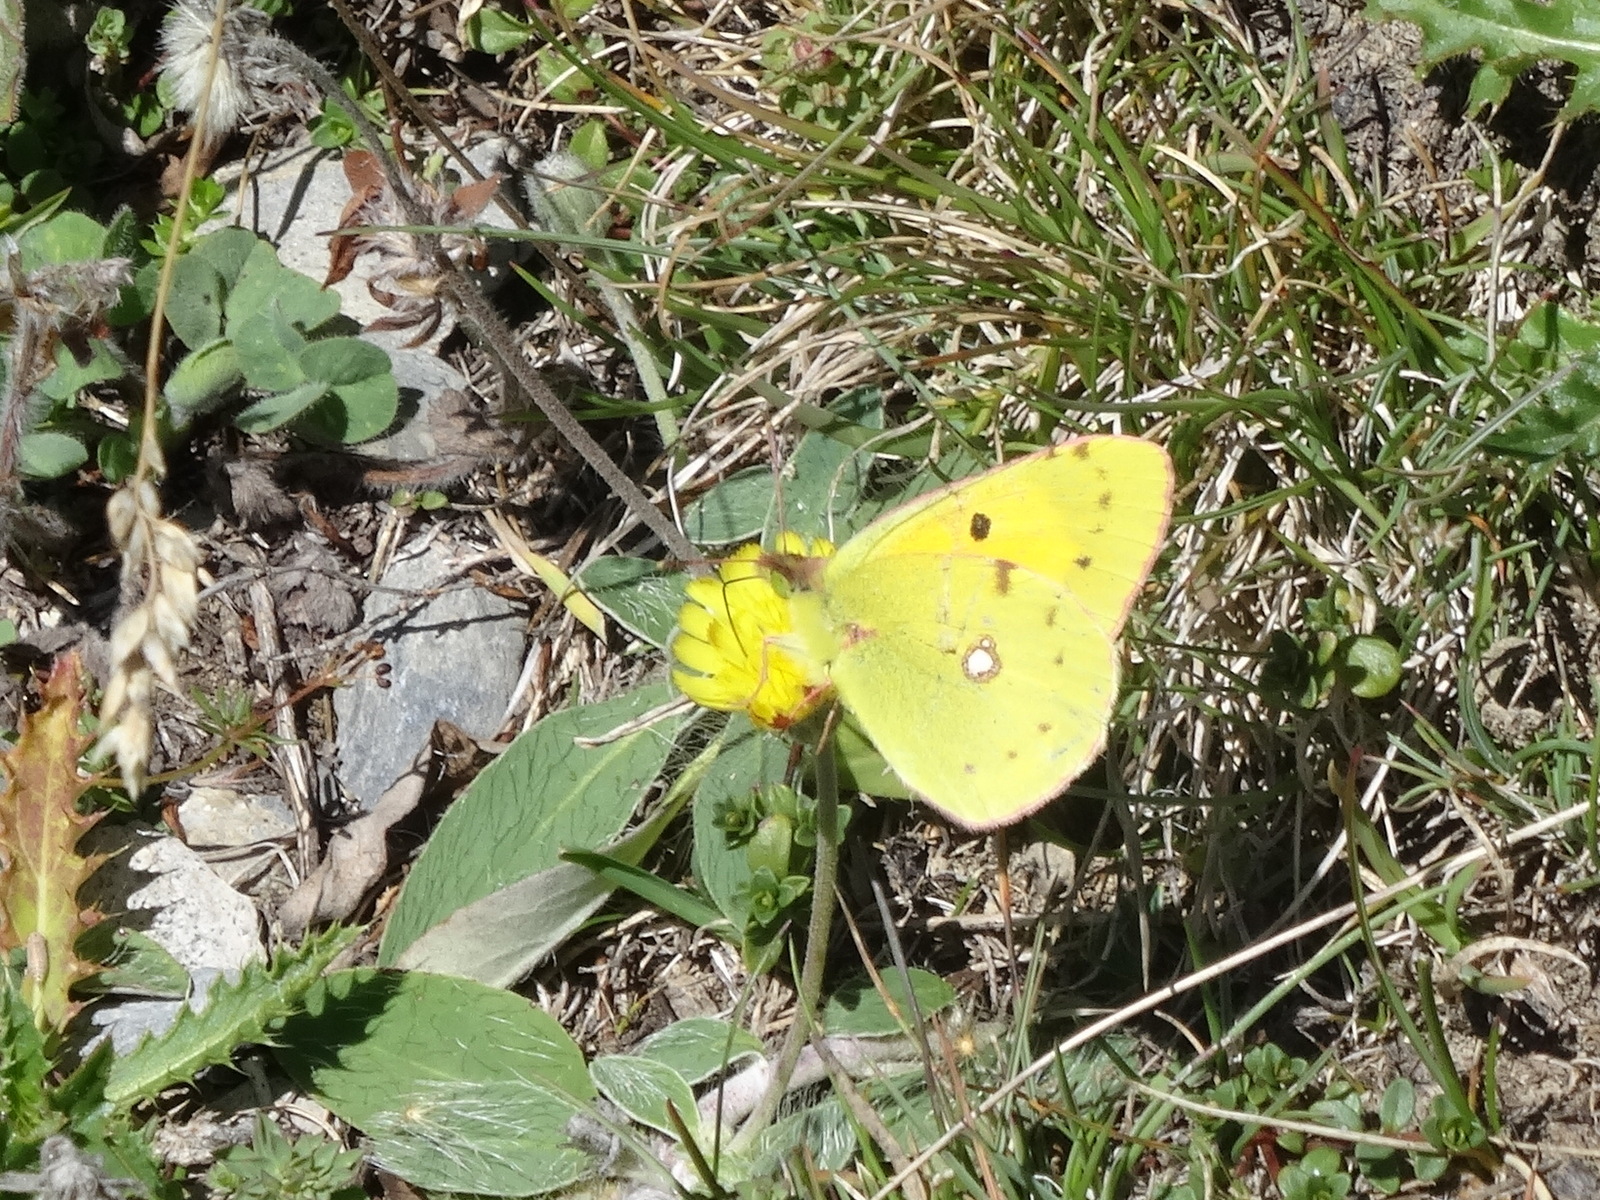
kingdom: Animalia
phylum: Arthropoda
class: Insecta
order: Lepidoptera
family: Pieridae
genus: Colias
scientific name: Colias croceus
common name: Clouded yellow
